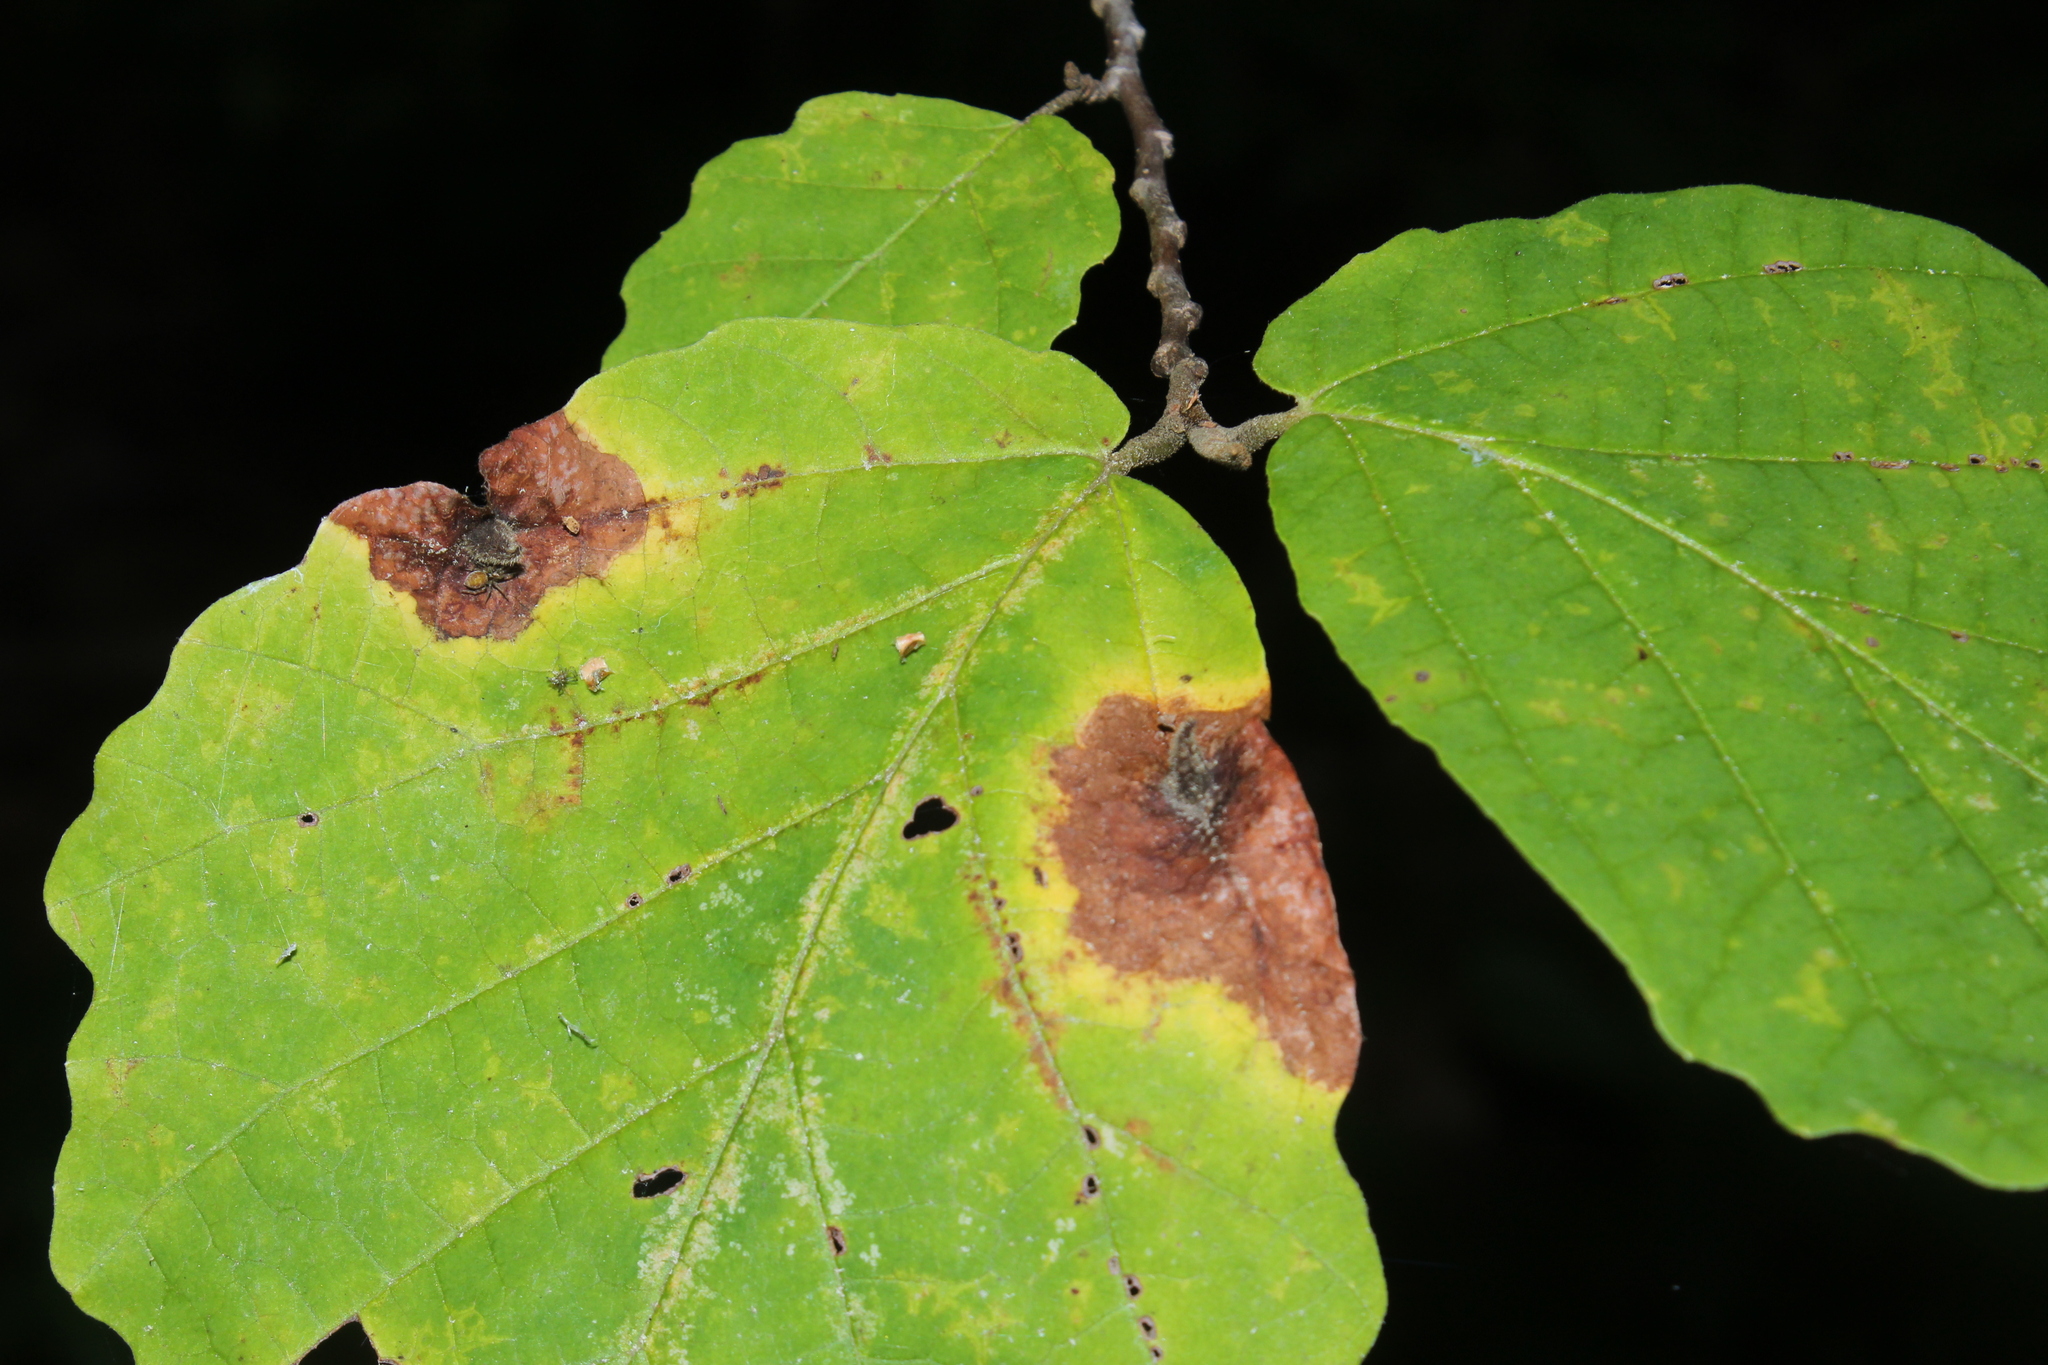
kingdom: Animalia
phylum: Arthropoda
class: Insecta
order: Hemiptera
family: Aphididae
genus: Hormaphis
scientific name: Hormaphis hamamelidis
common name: Witch-hazel cone gall aphid
